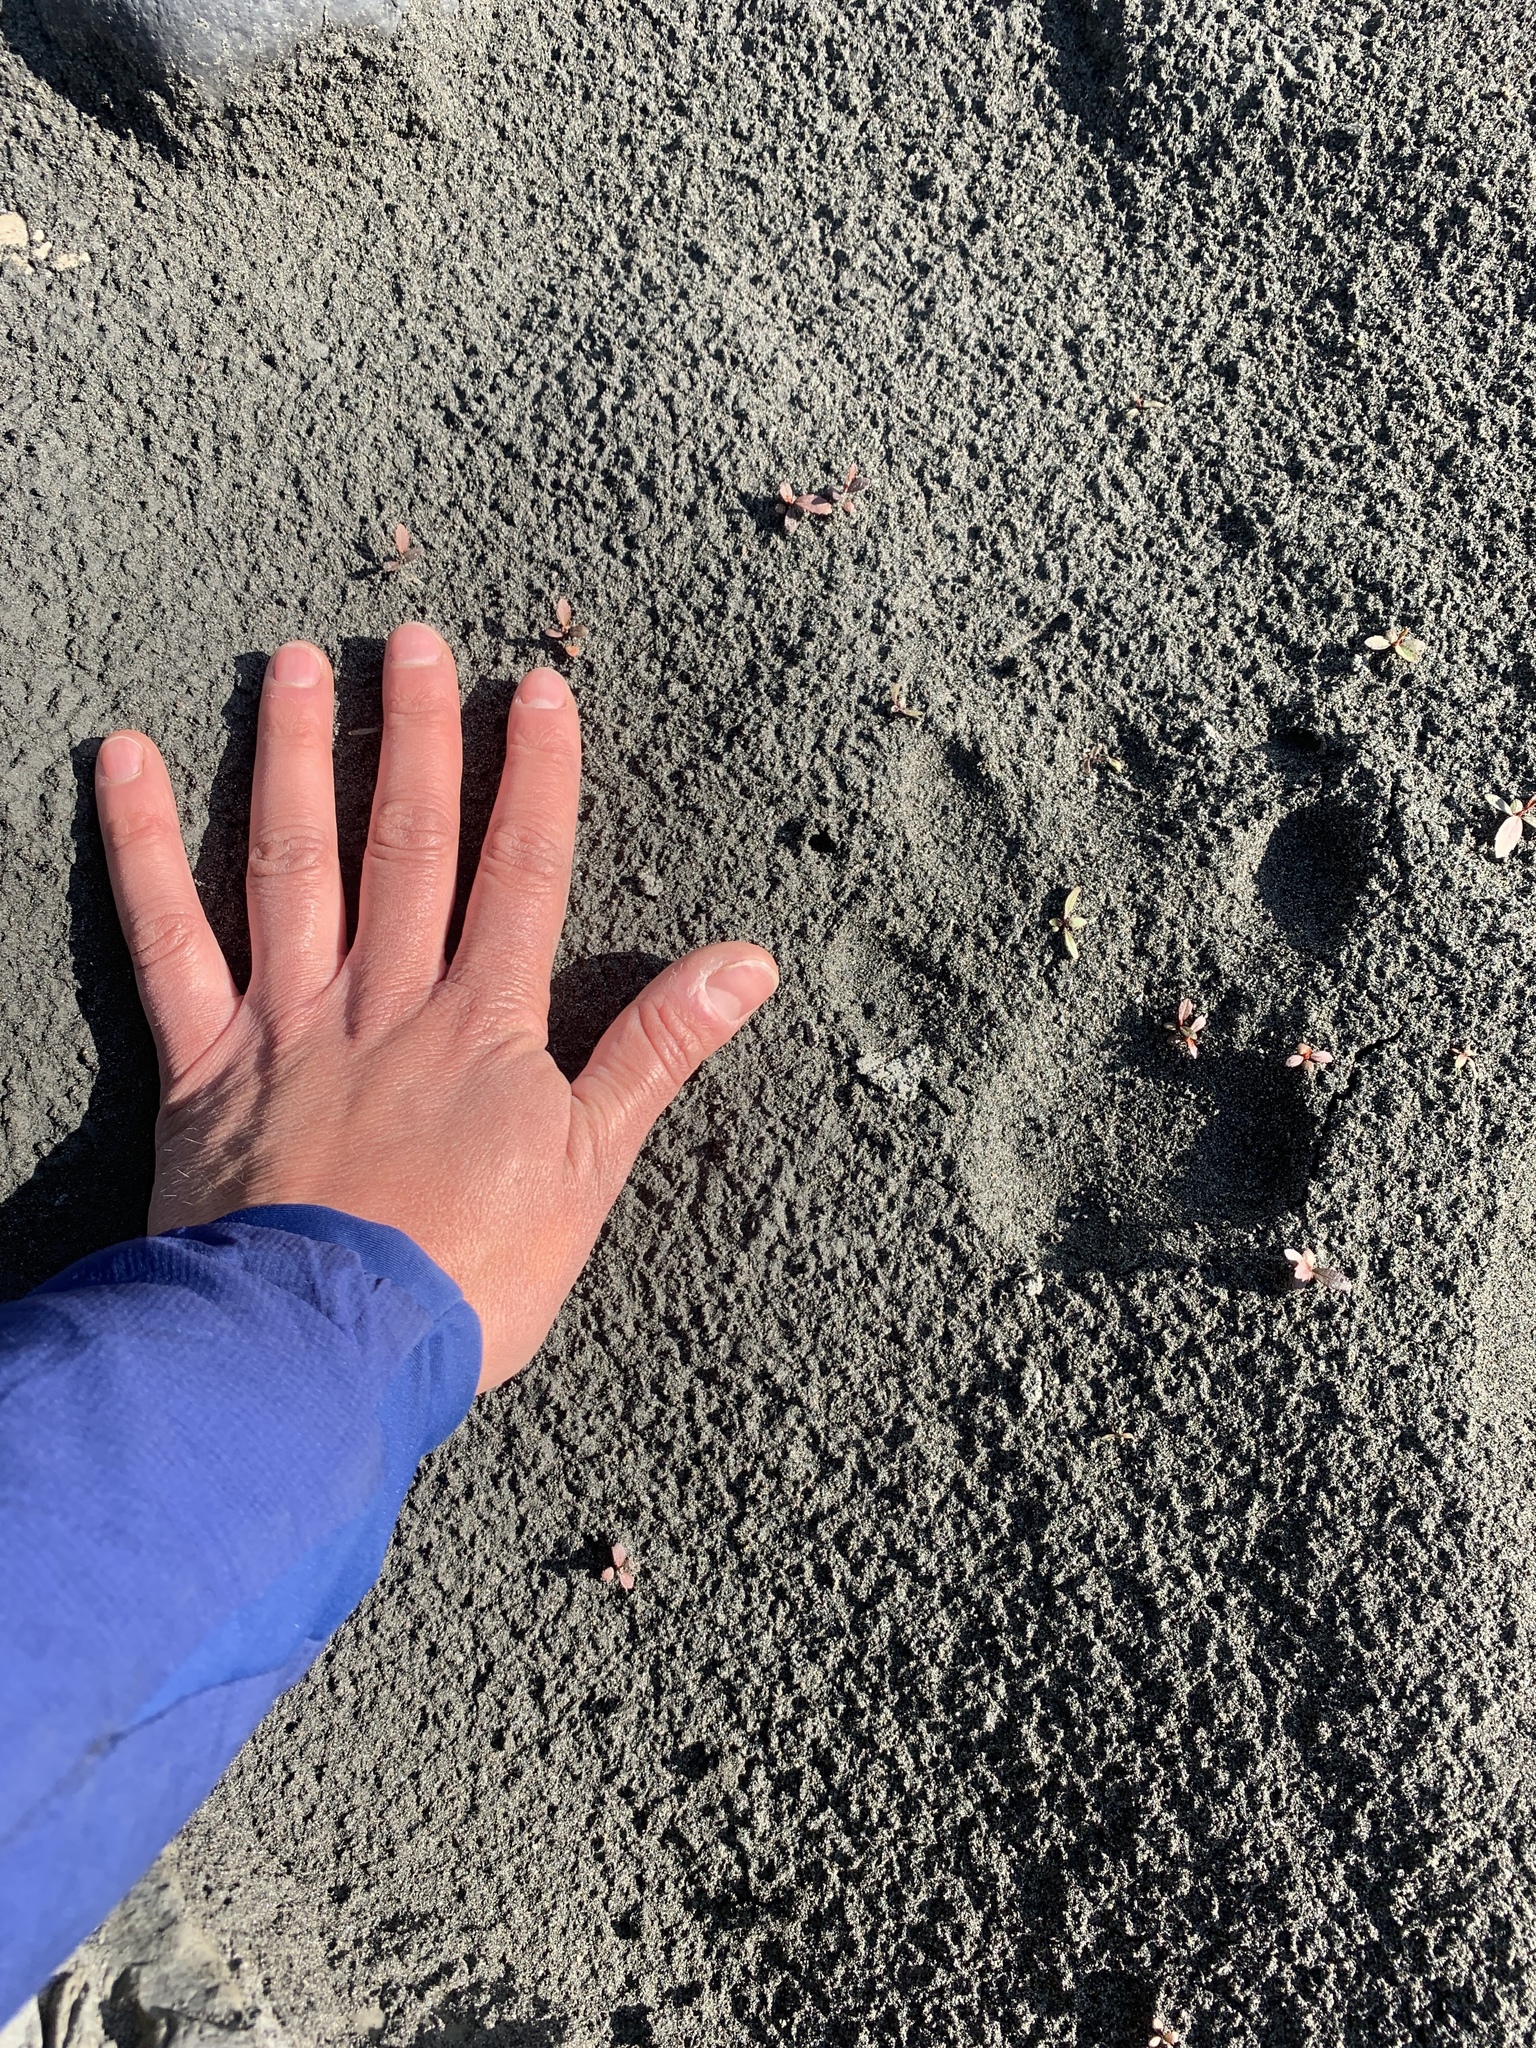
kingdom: Animalia
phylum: Chordata
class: Mammalia
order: Carnivora
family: Canidae
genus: Canis
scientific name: Canis lupus
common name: Gray wolf
